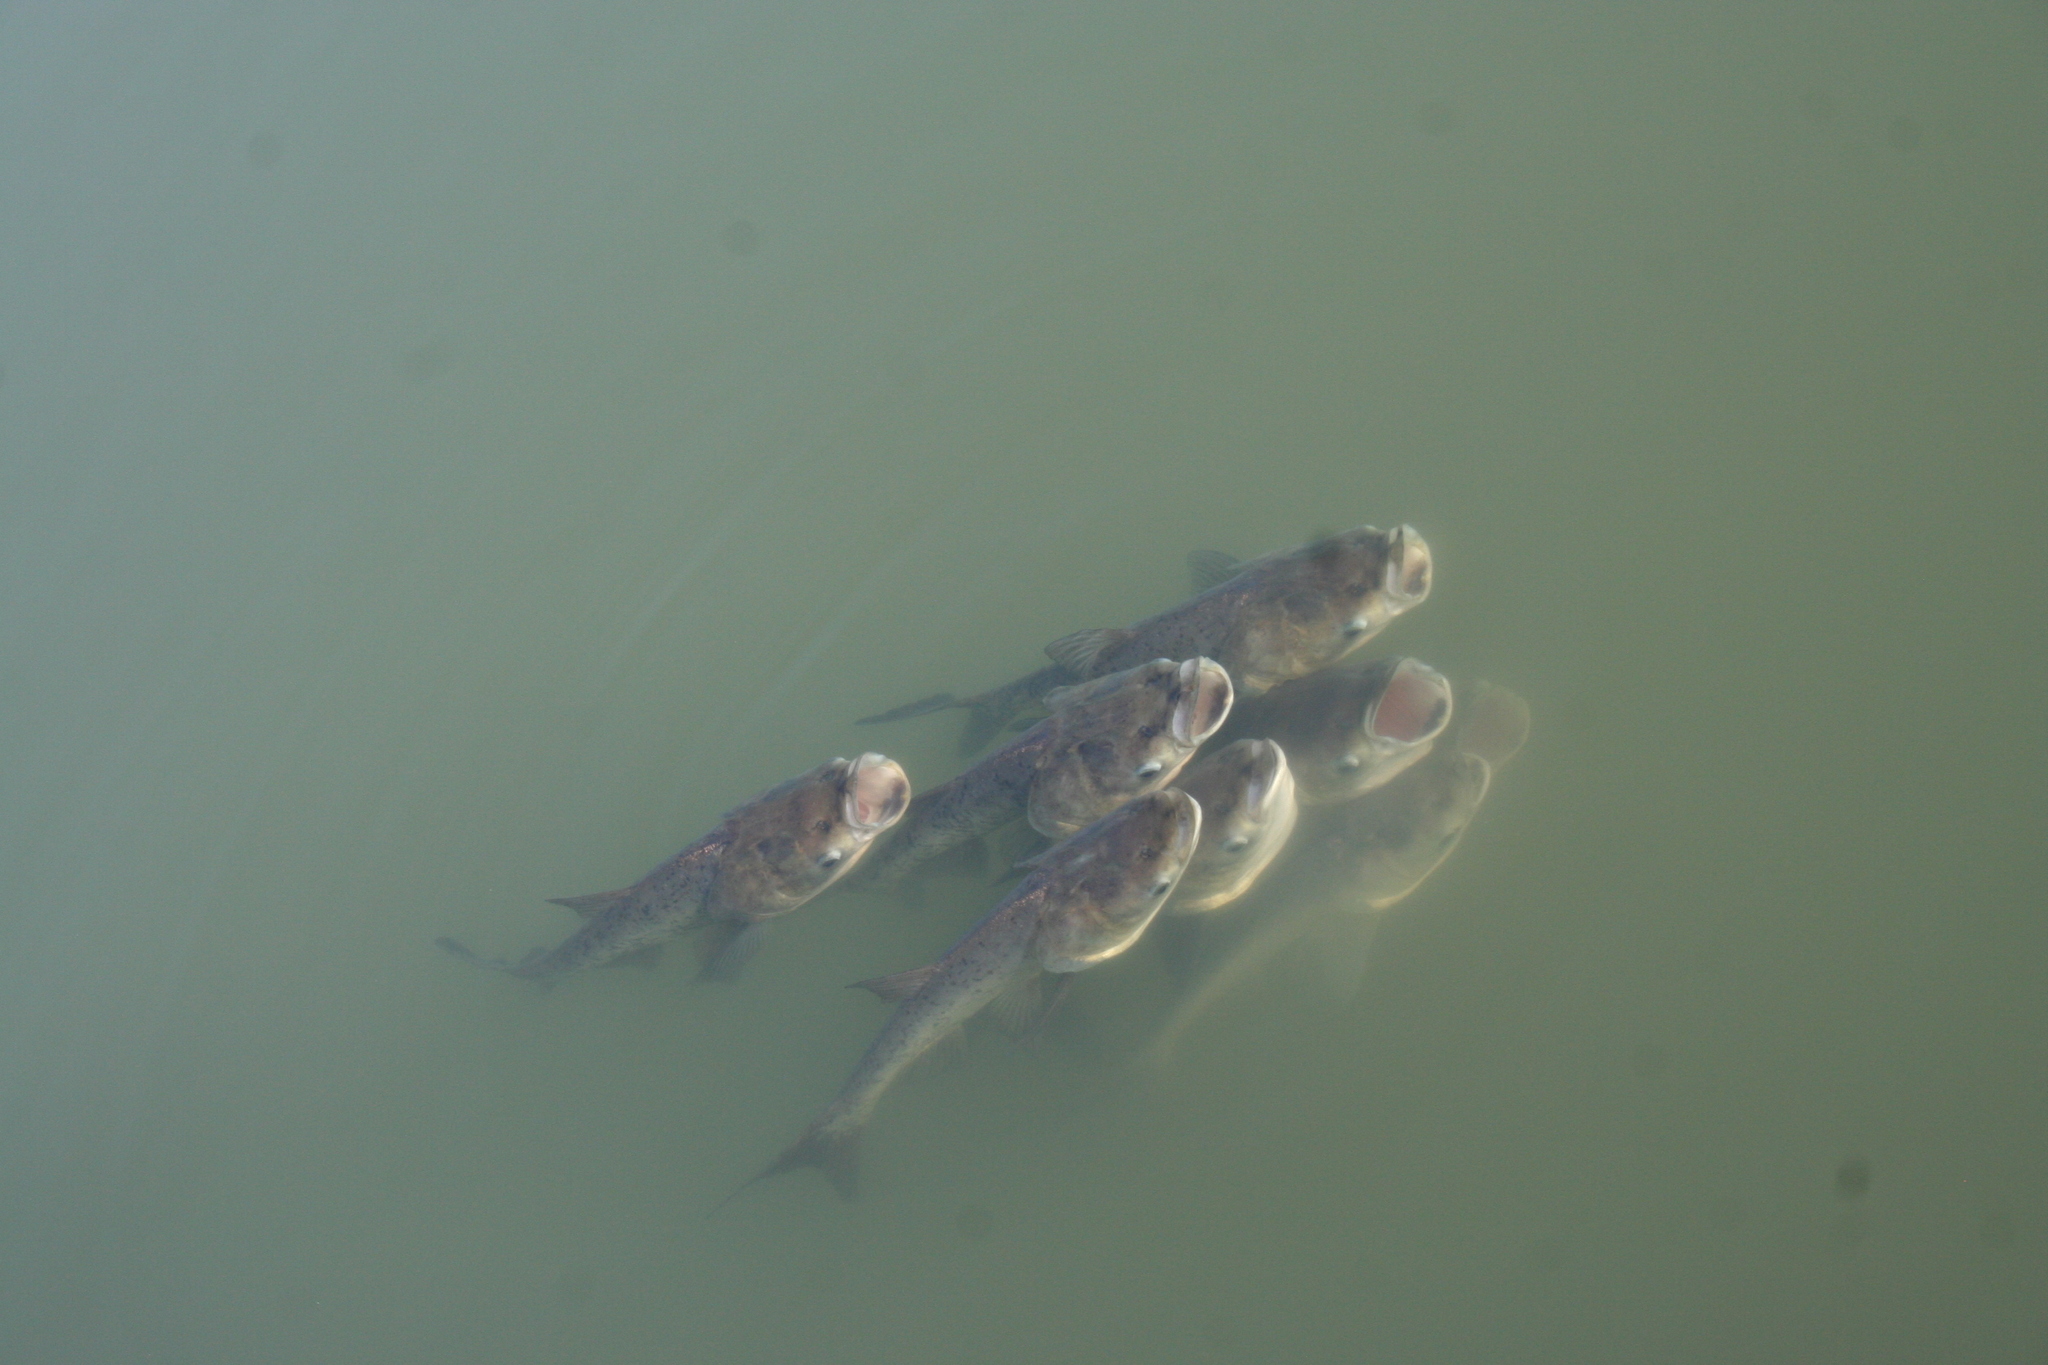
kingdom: Animalia
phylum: Chordata
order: Cypriniformes
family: Cyprinidae
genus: Hypophthalmichthys
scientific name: Hypophthalmichthys nobilis
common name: Bighead carp
